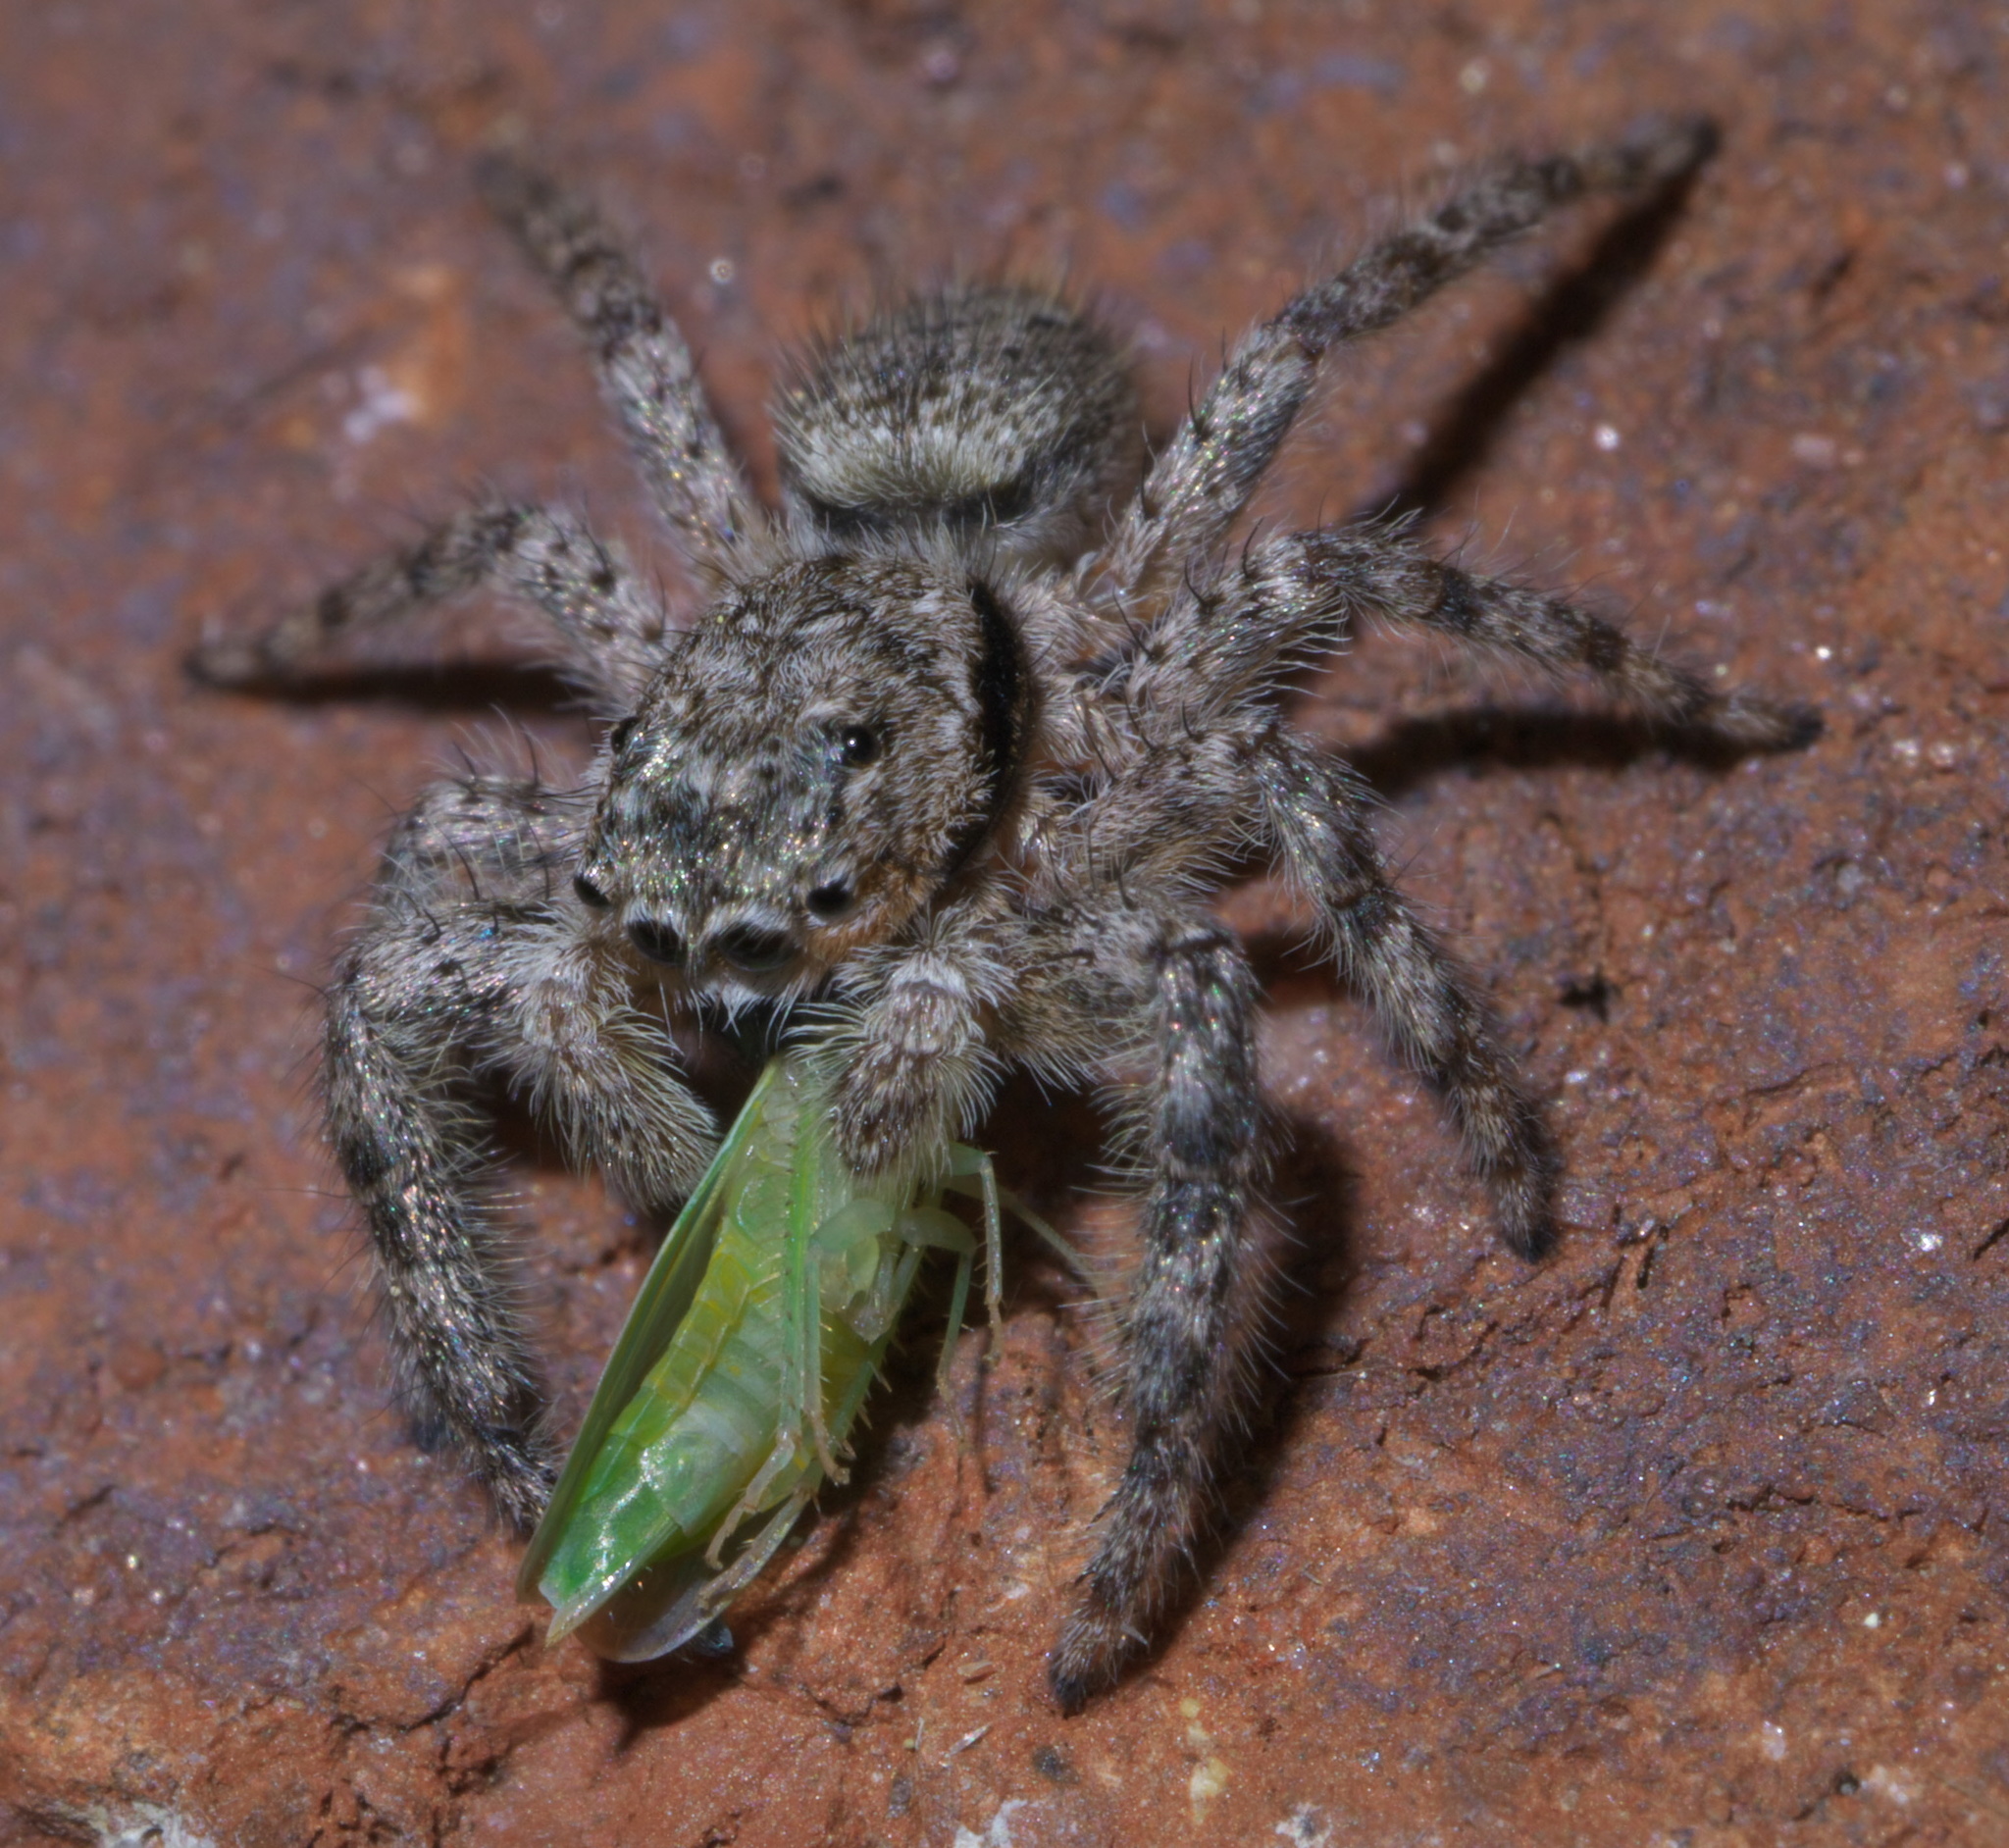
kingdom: Animalia
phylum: Arthropoda
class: Arachnida
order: Araneae
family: Salticidae
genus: Platycryptus
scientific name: Platycryptus undatus
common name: Tan jumping spider
